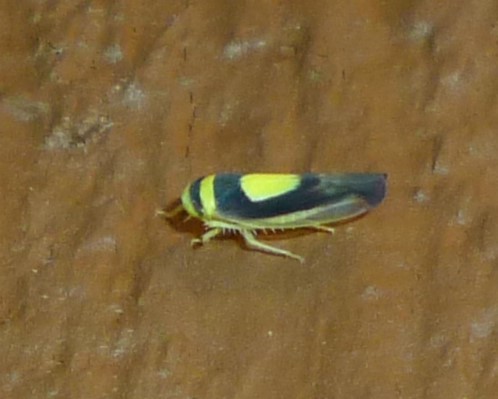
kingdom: Animalia
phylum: Arthropoda
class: Insecta
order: Hemiptera
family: Cicadellidae
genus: Colladonus
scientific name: Colladonus clitellarius
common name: The saddleback leafhopper
